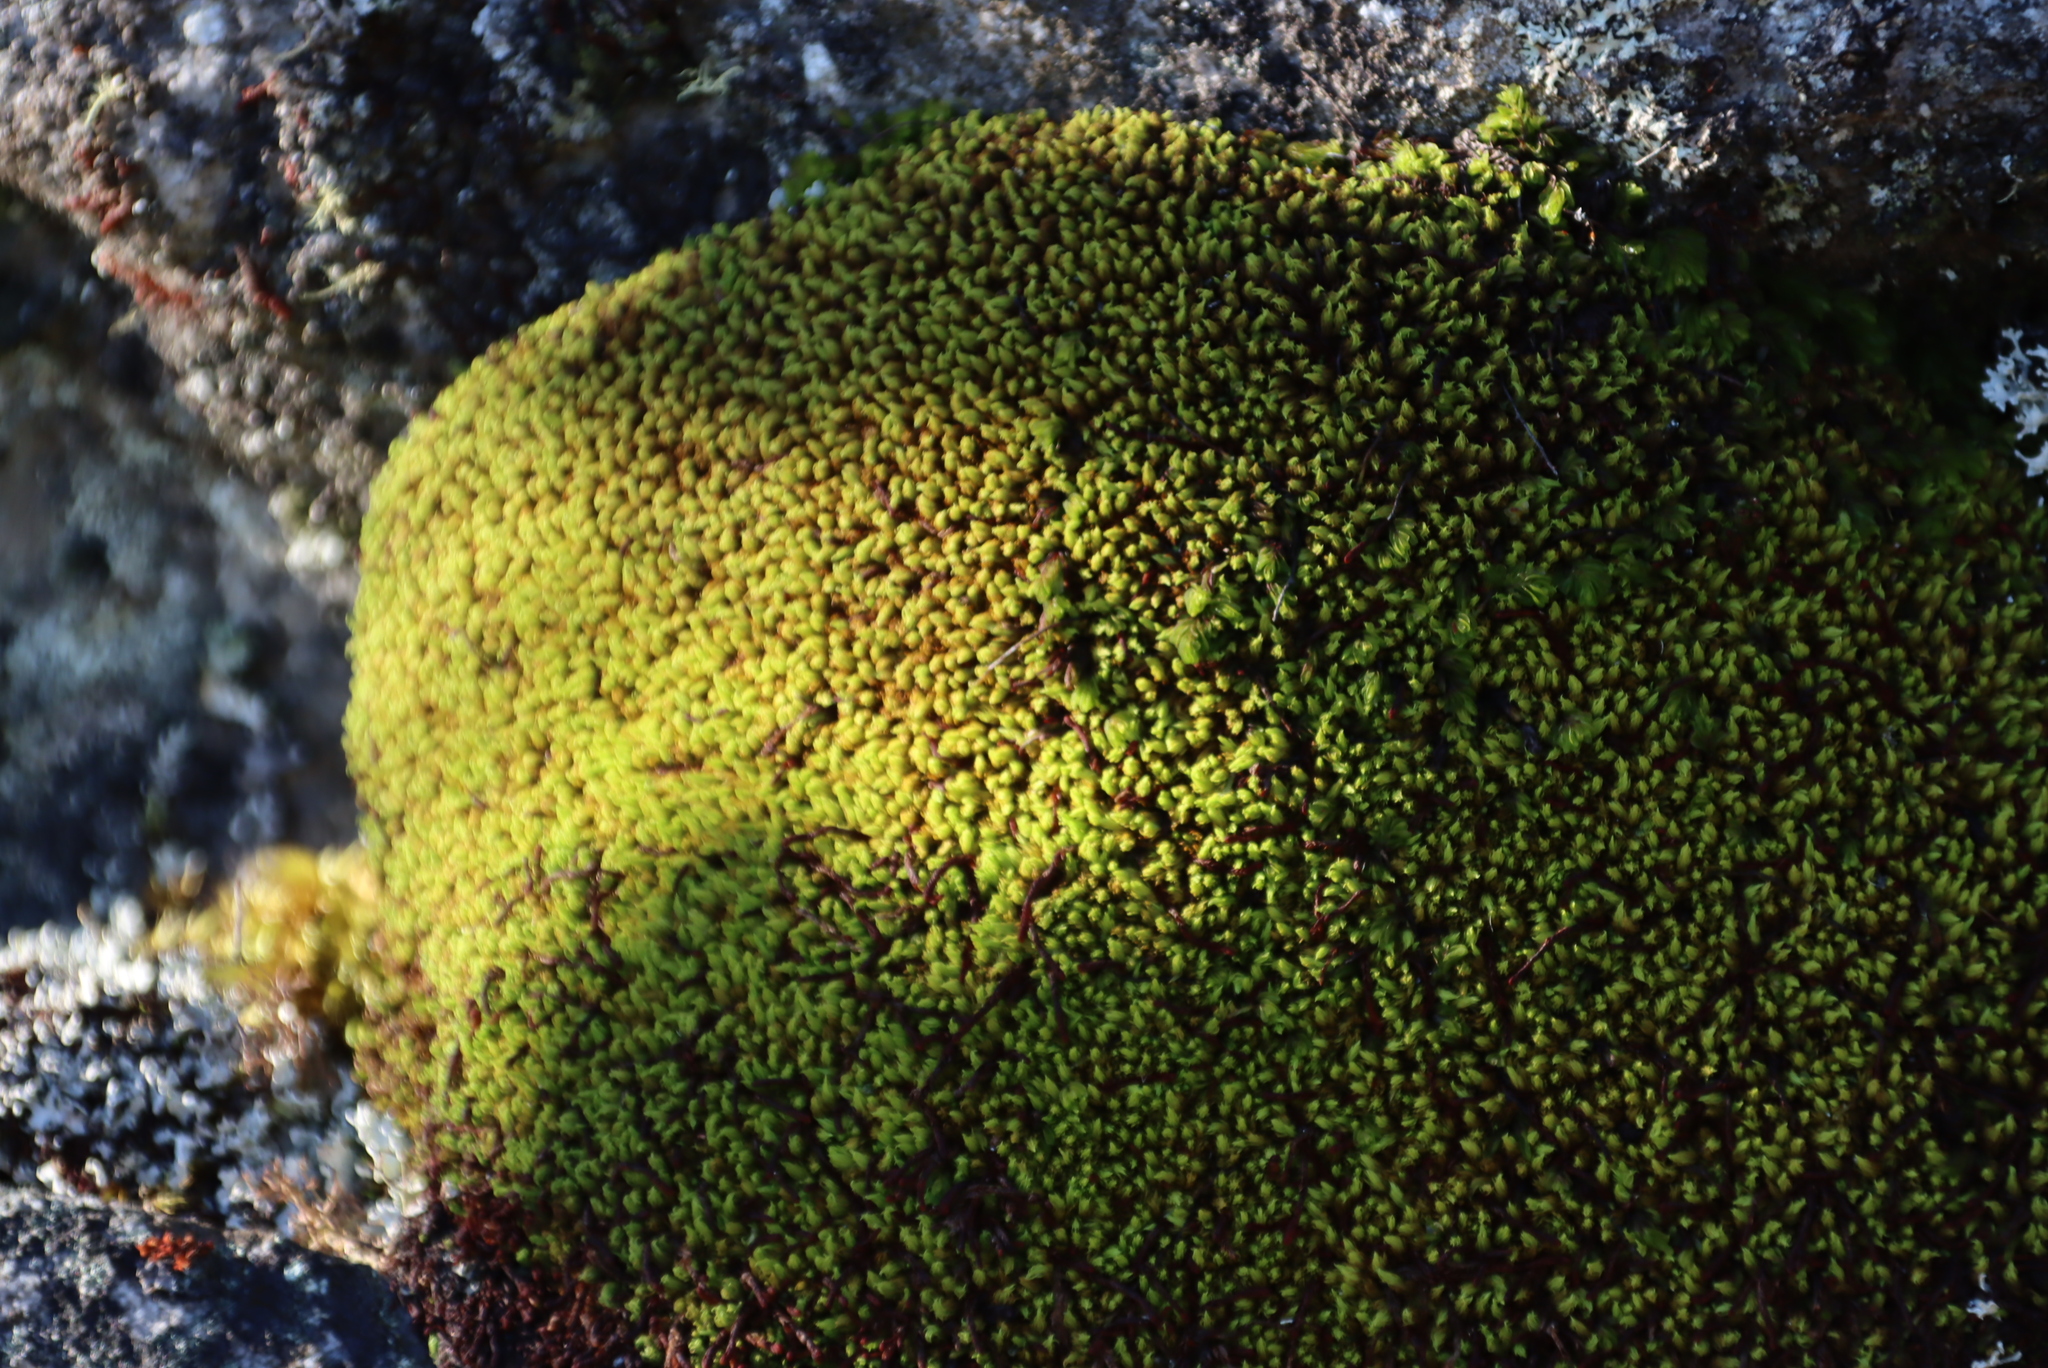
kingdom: Plantae
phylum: Bryophyta
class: Bryopsida
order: Dicranales
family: Hypodontiaceae
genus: Hypodontium
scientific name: Hypodontium pomiforme
